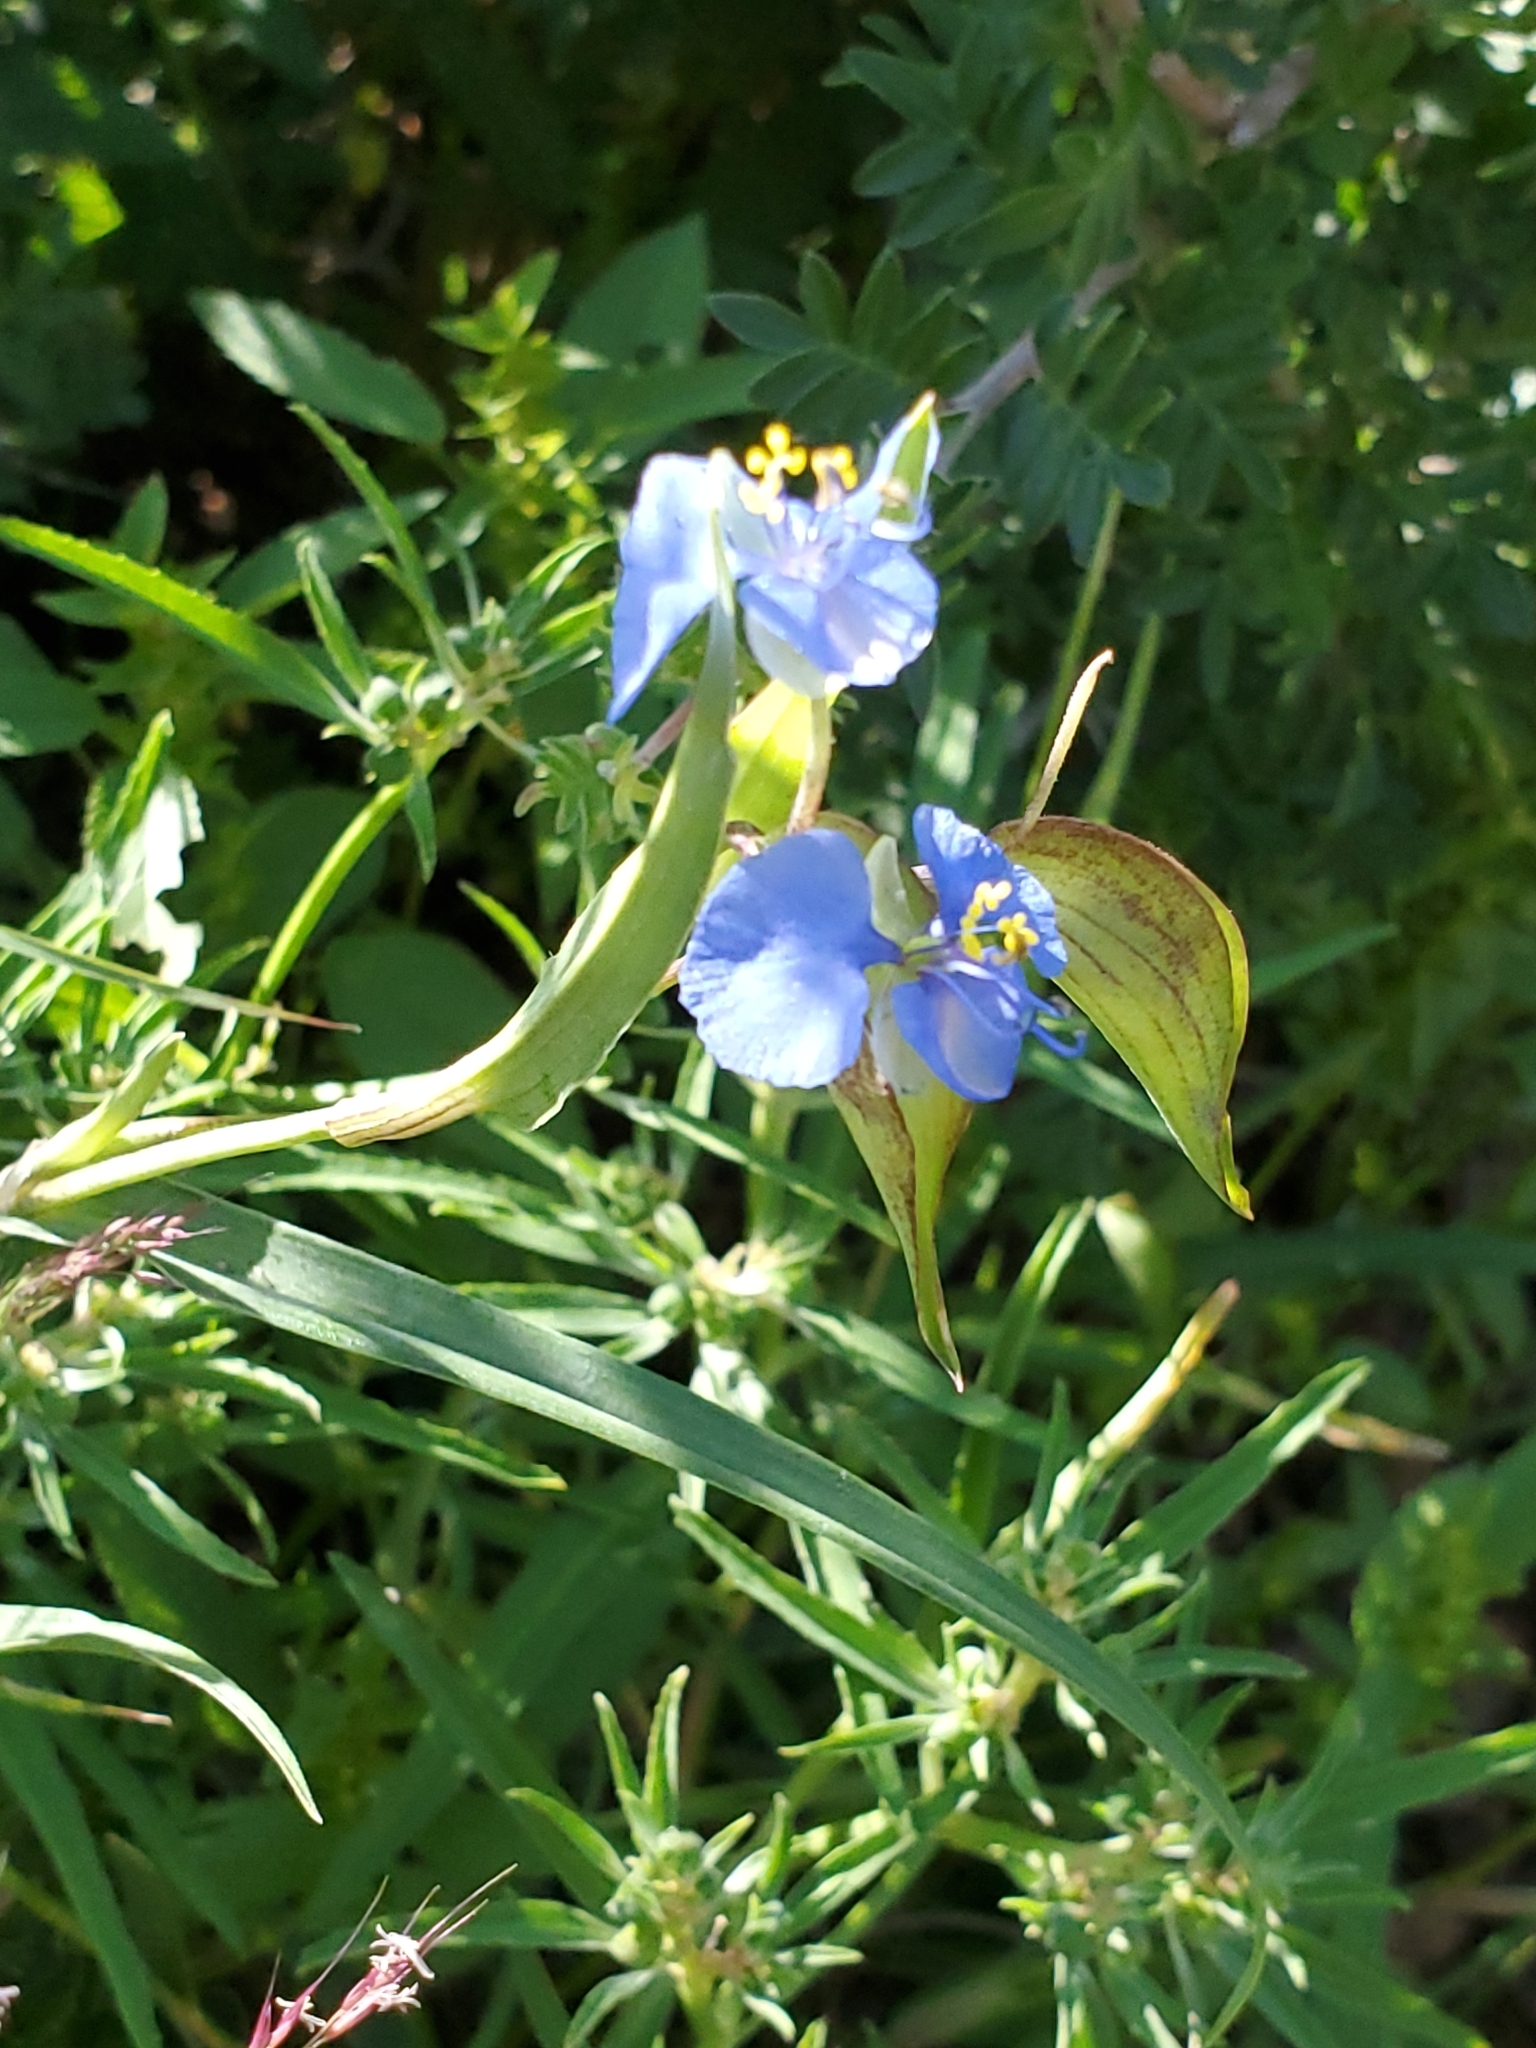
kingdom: Plantae
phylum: Tracheophyta
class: Liliopsida
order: Commelinales
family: Commelinaceae
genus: Commelina
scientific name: Commelina dianthifolia
